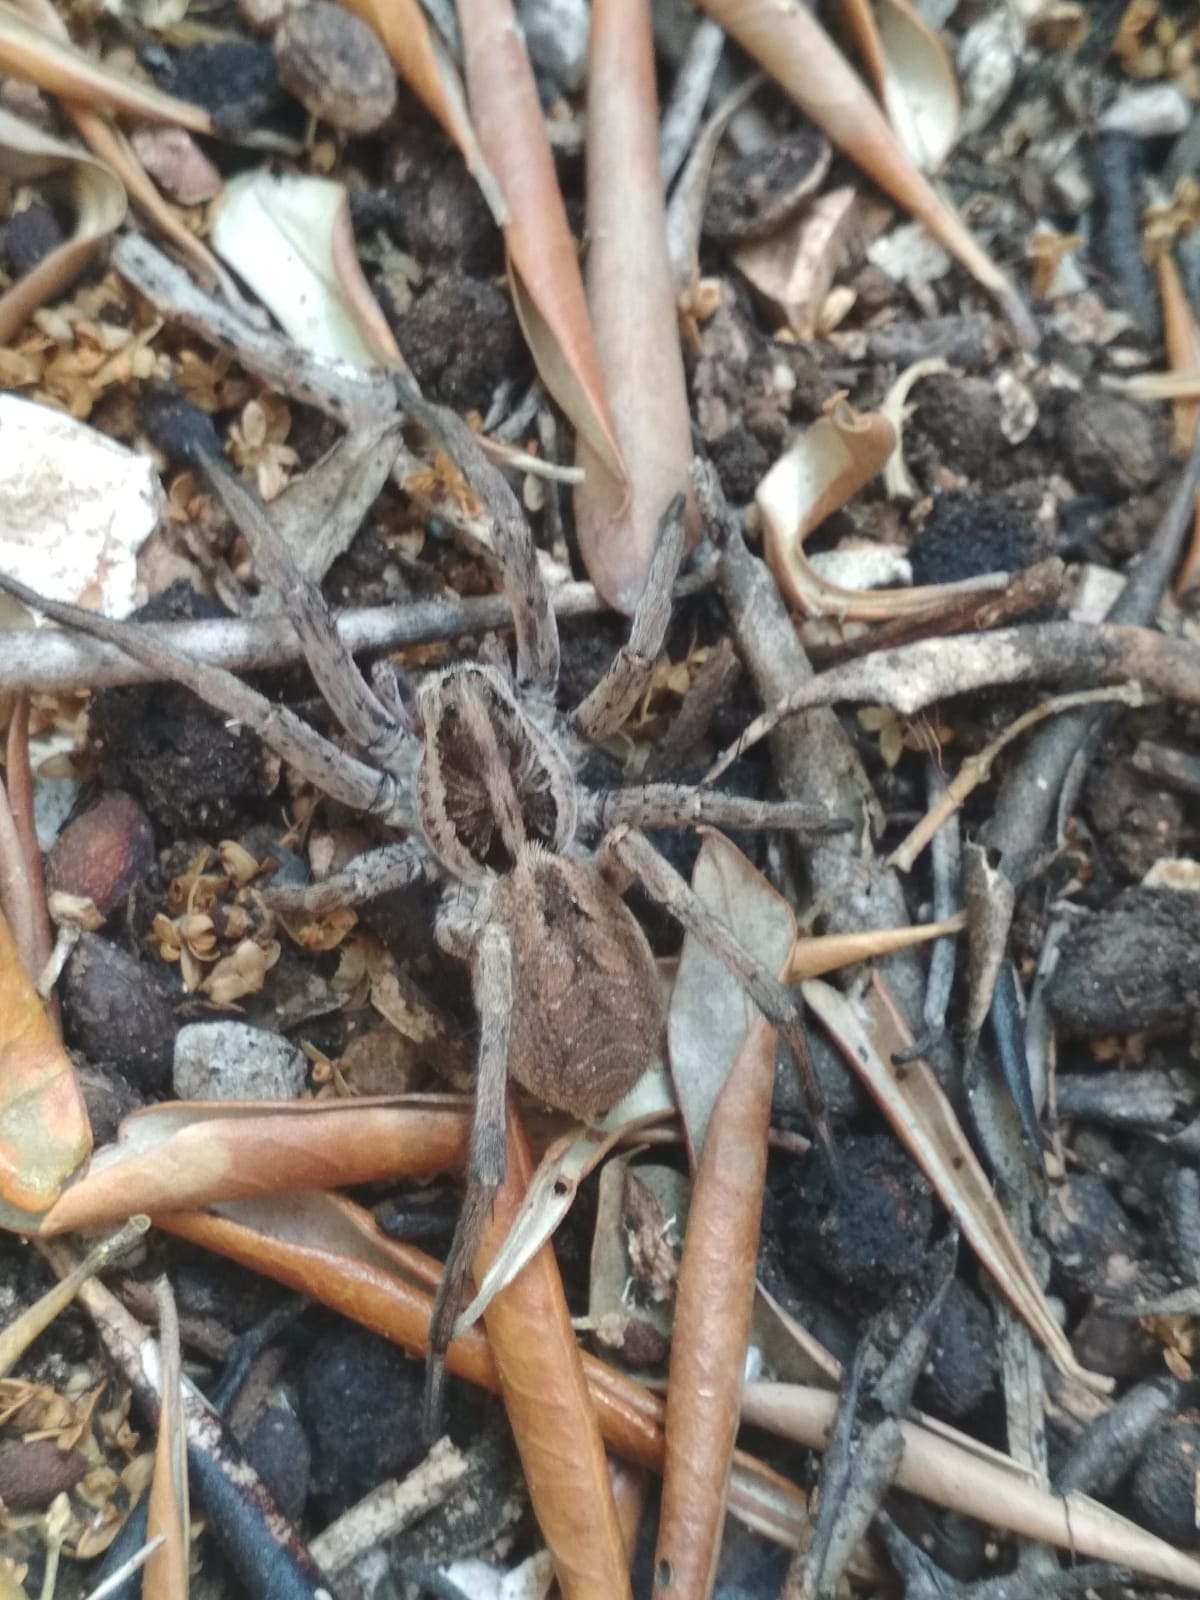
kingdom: Animalia
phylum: Arthropoda
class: Arachnida
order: Araneae
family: Lycosidae
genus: Hogna
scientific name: Hogna
